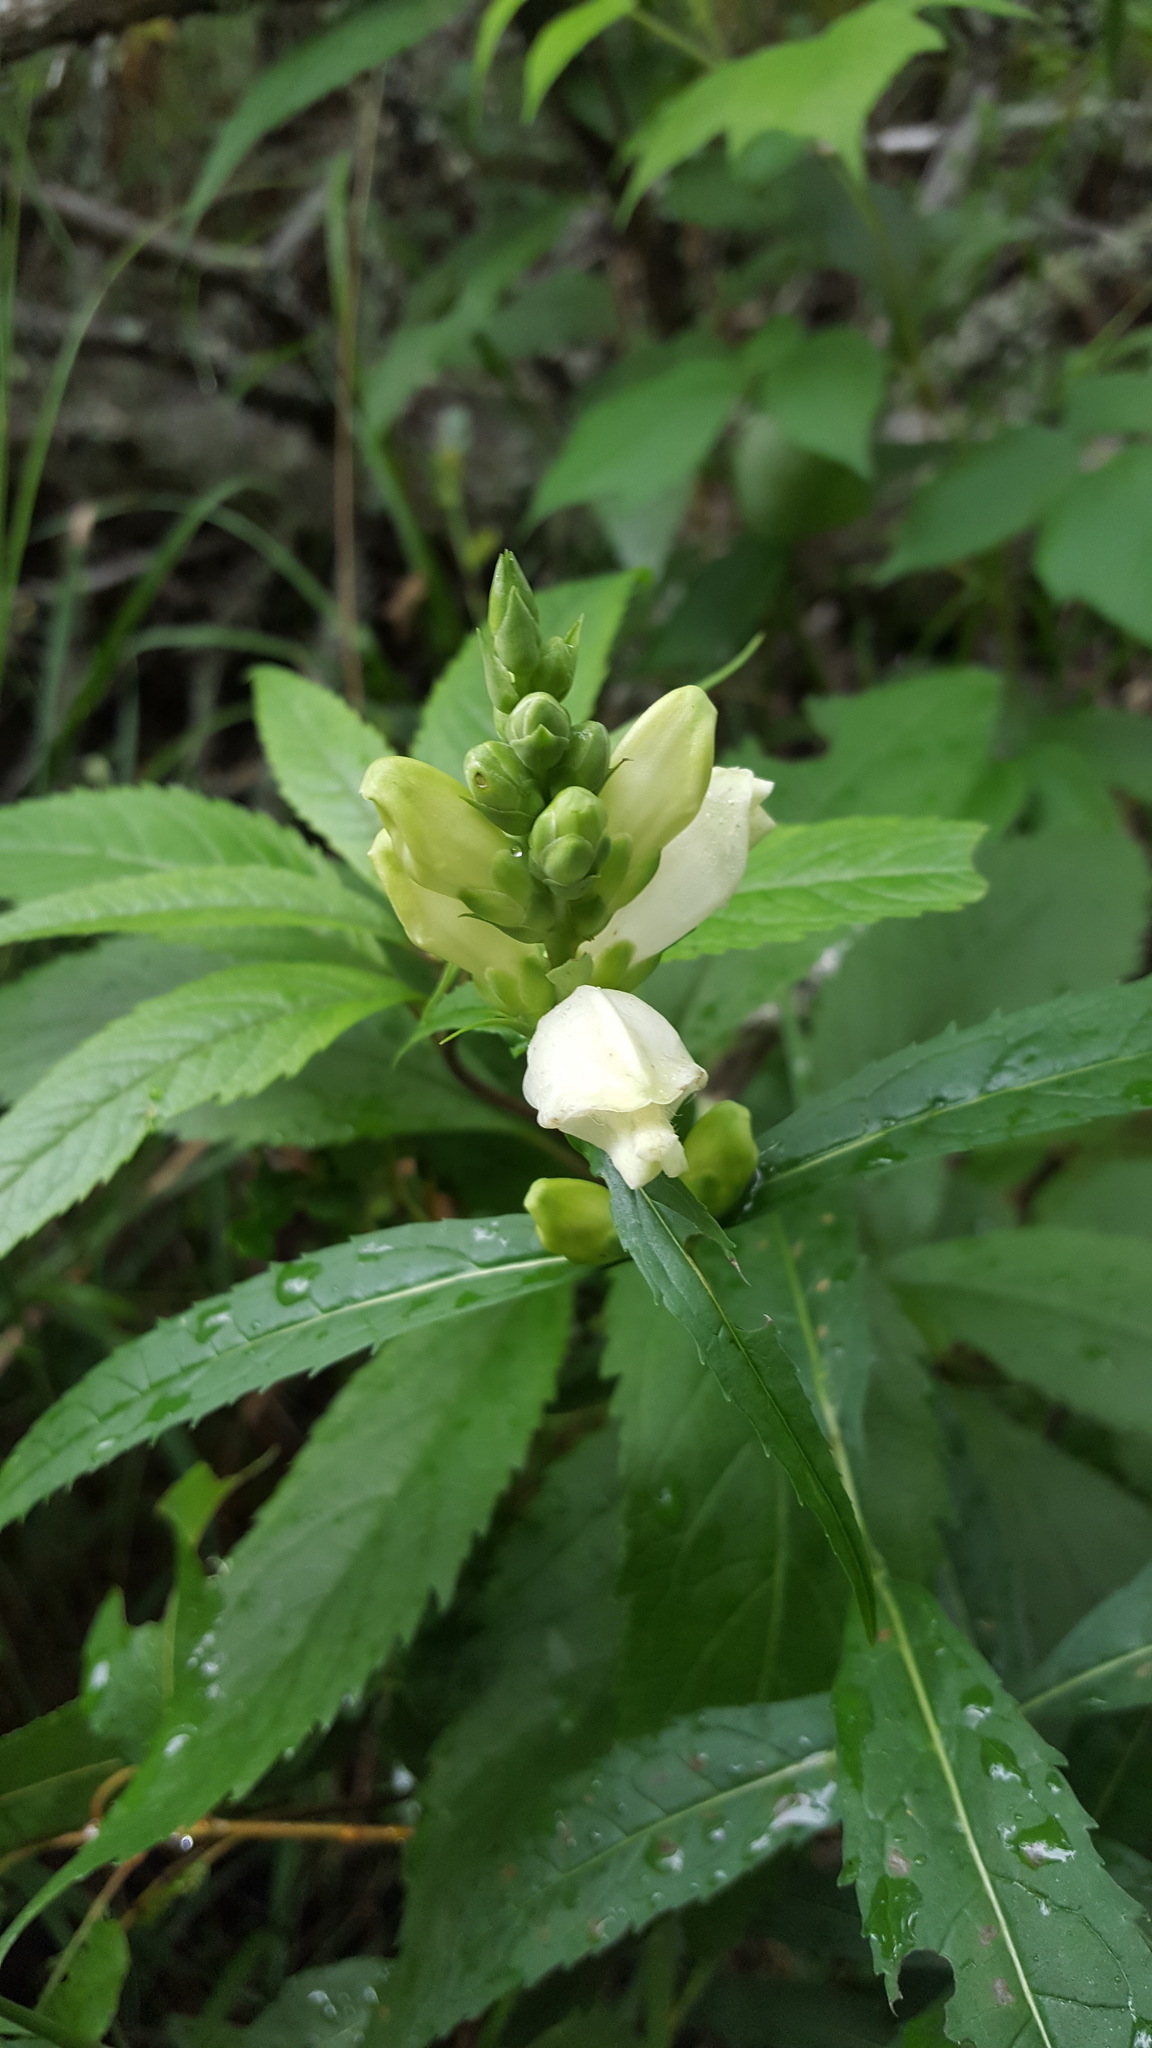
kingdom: Plantae
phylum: Tracheophyta
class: Magnoliopsida
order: Lamiales
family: Plantaginaceae
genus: Chelone
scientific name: Chelone glabra
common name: Snakehead
